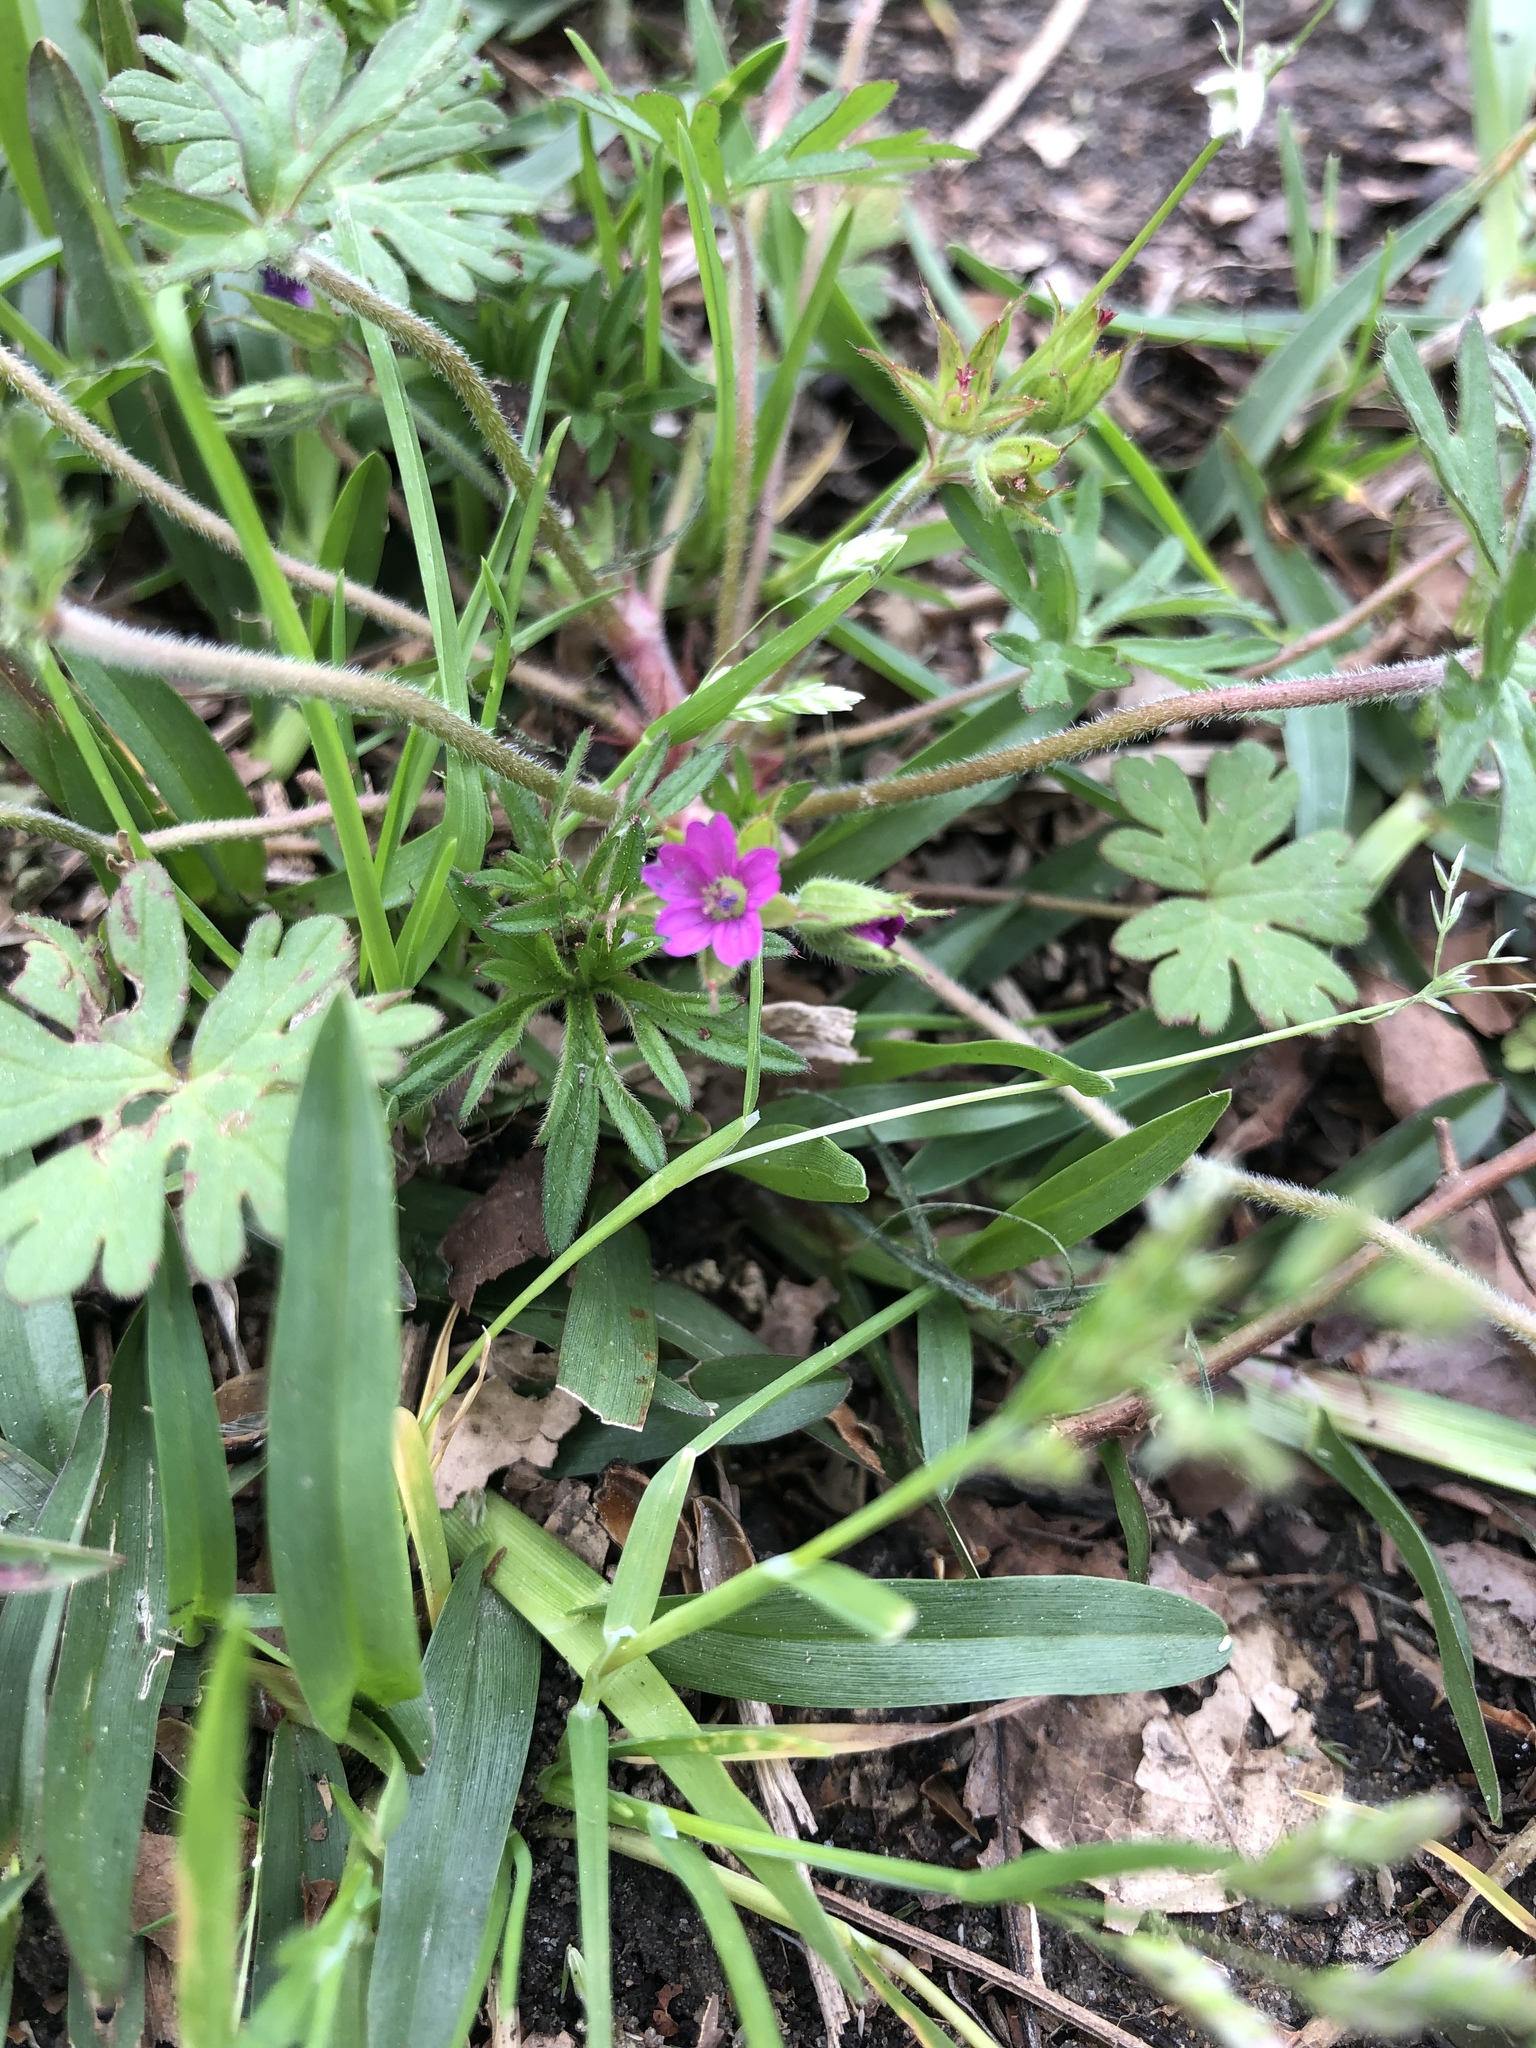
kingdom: Plantae
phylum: Tracheophyta
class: Magnoliopsida
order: Geraniales
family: Geraniaceae
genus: Geranium
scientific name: Geranium dissectum
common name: Cut-leaved crane's-bill
